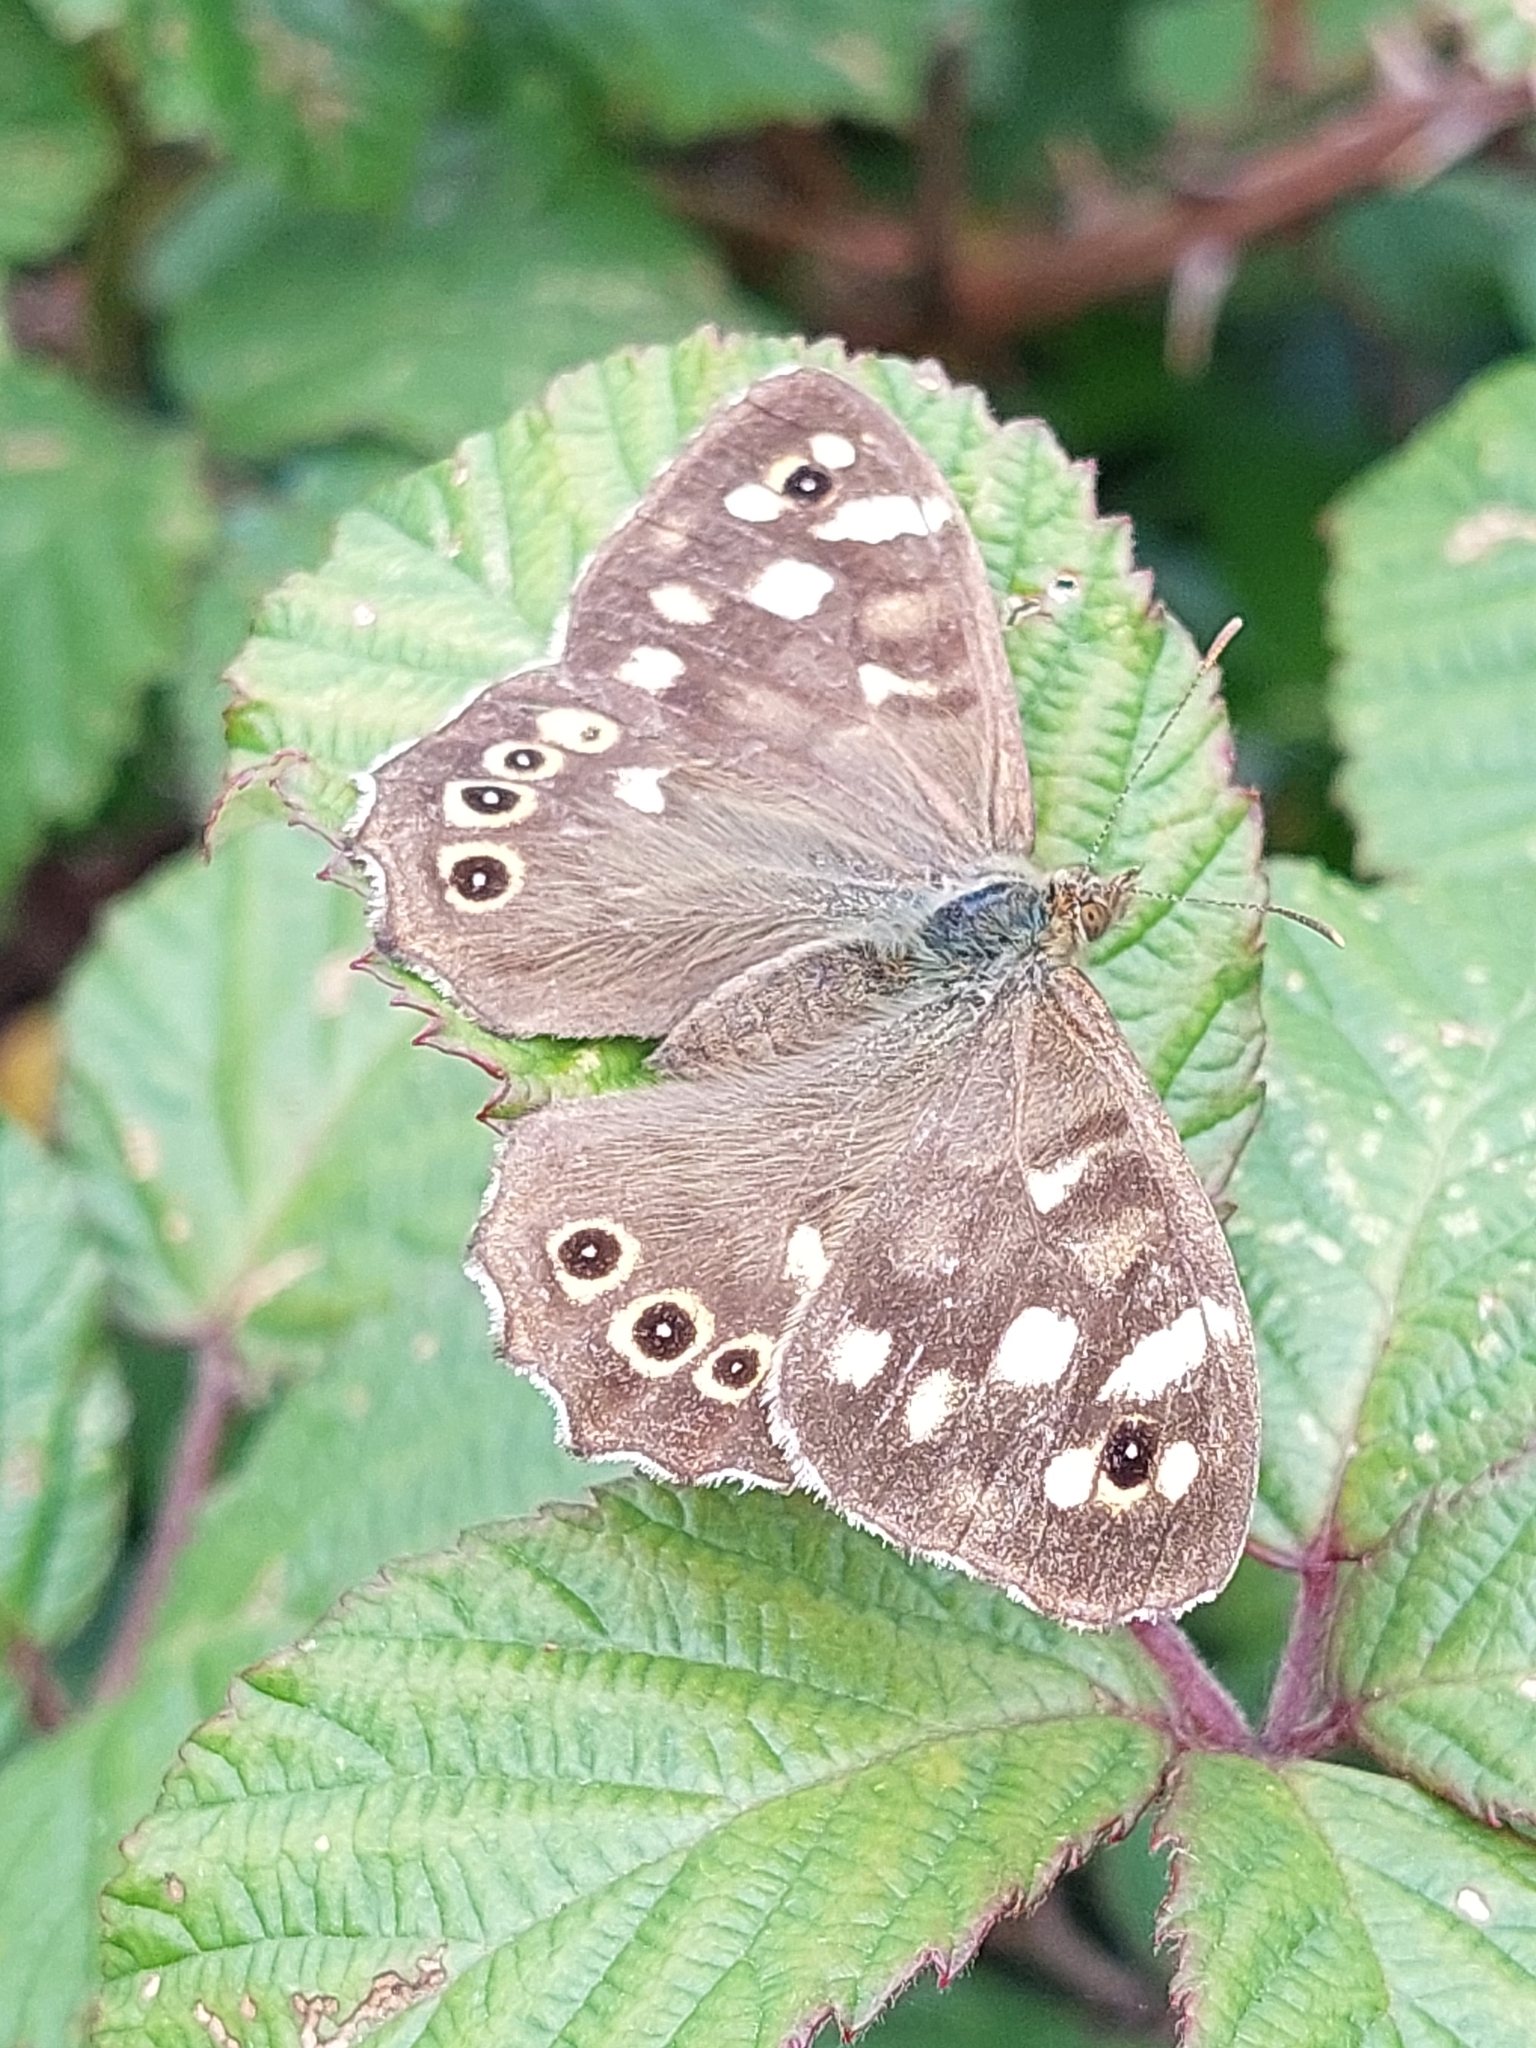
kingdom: Animalia
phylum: Arthropoda
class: Insecta
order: Lepidoptera
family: Nymphalidae
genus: Pararge
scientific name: Pararge aegeria
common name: Speckled wood
